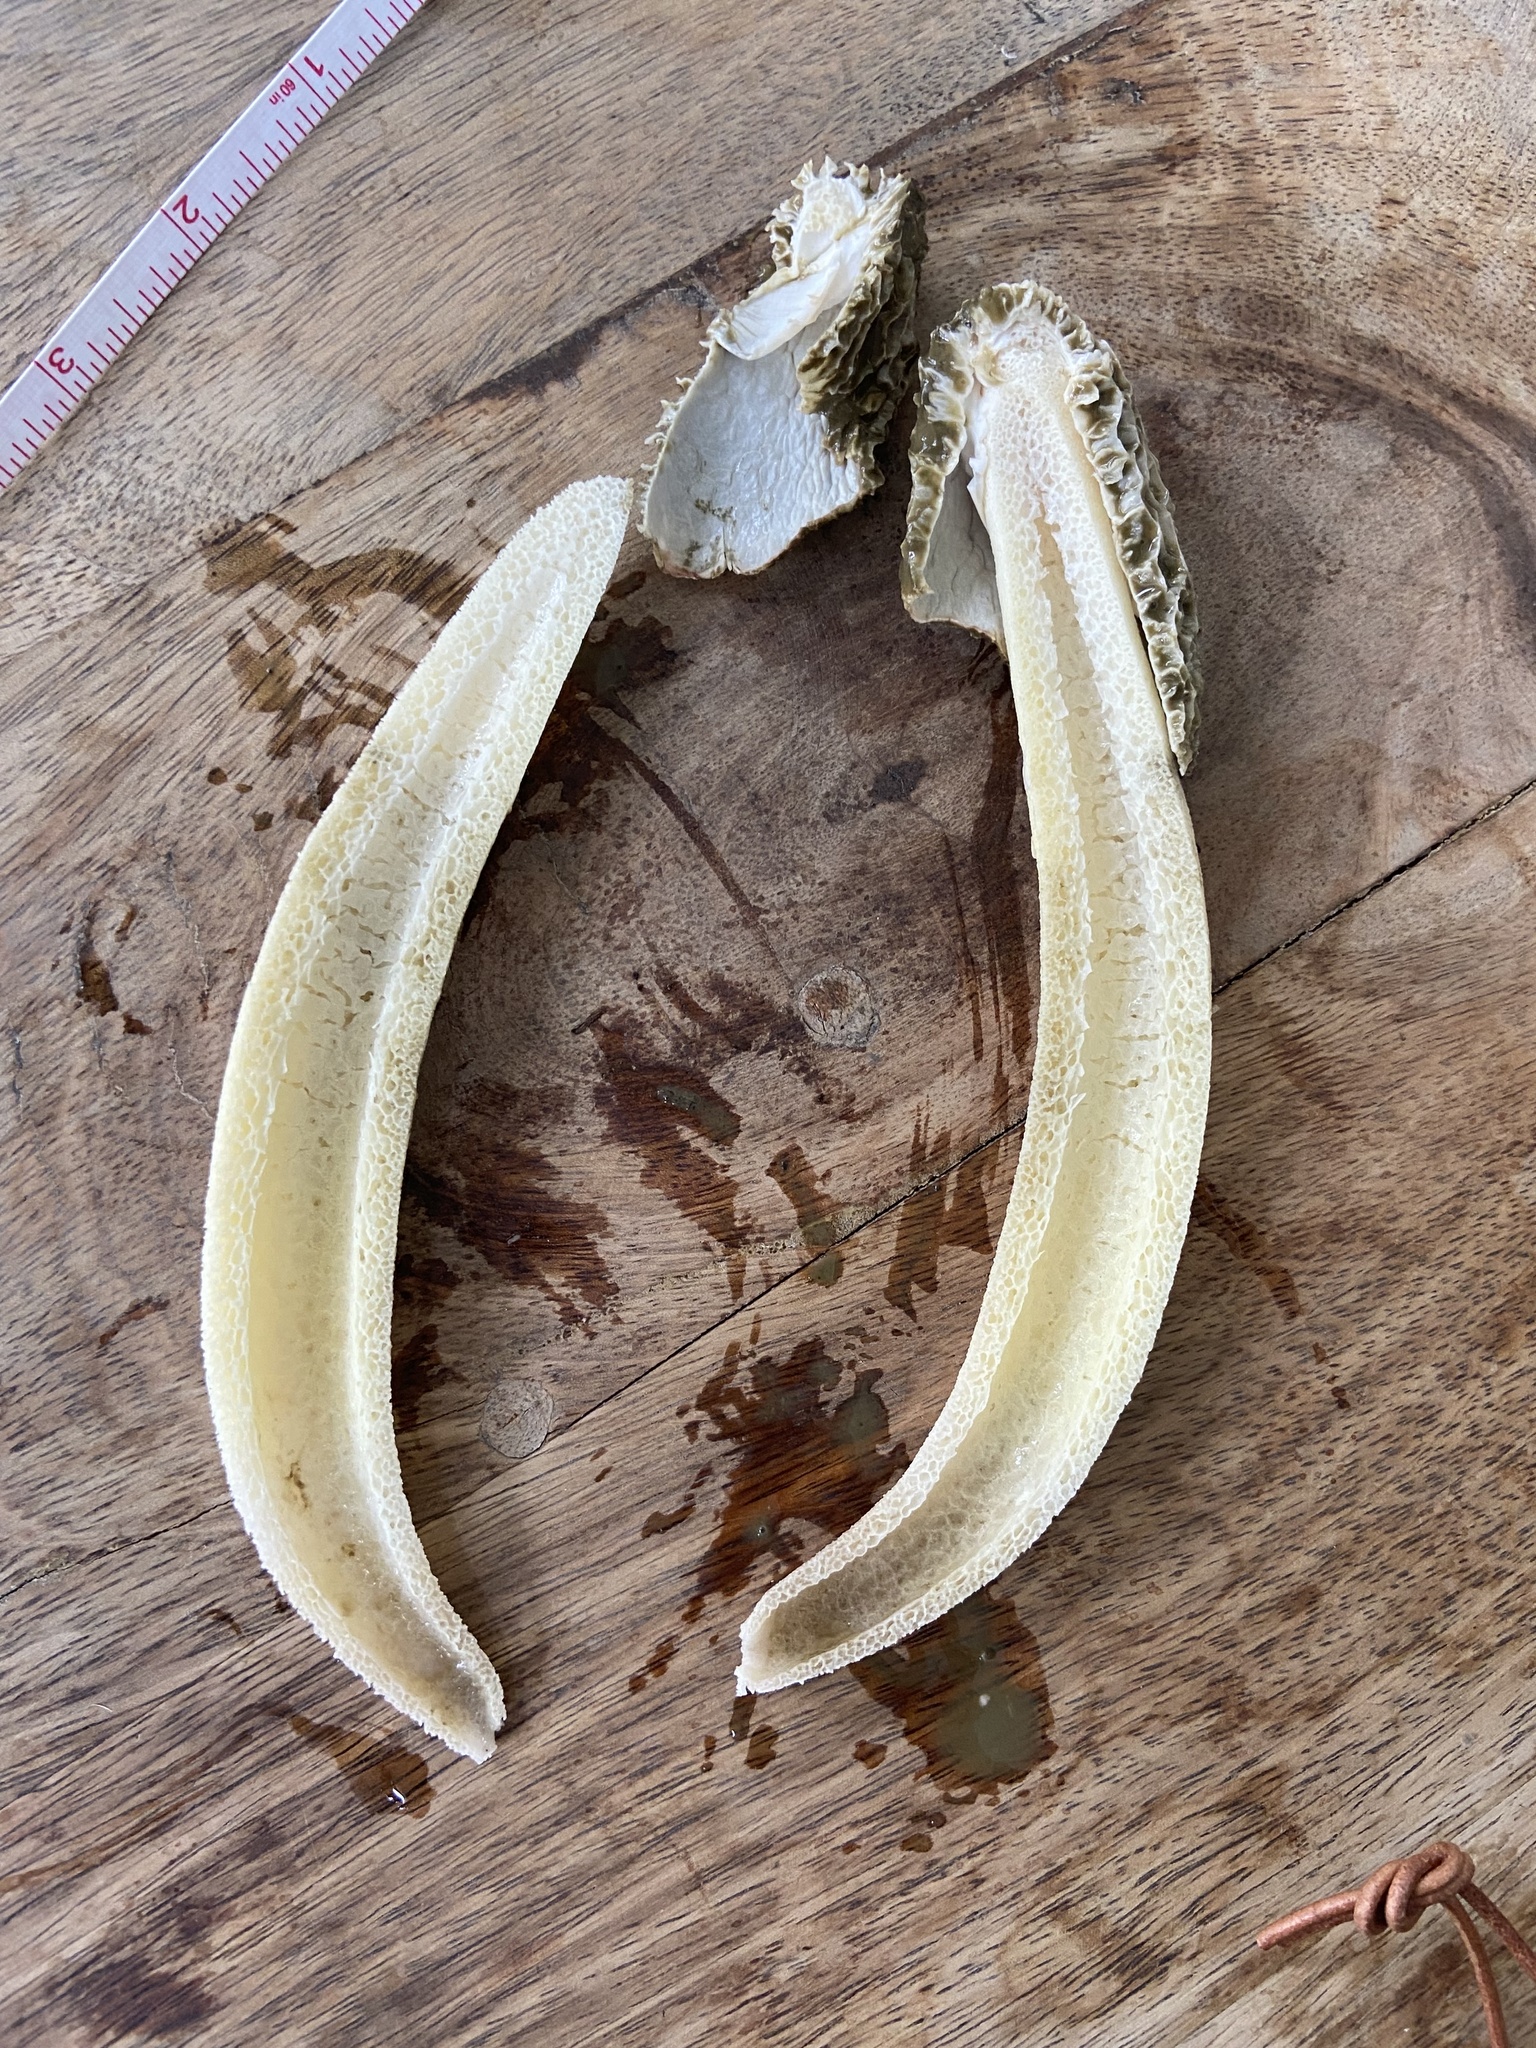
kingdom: Fungi
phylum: Basidiomycota
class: Agaricomycetes
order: Phallales
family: Phallaceae
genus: Phallus
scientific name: Phallus hadriani
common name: Sand stinkhorn
